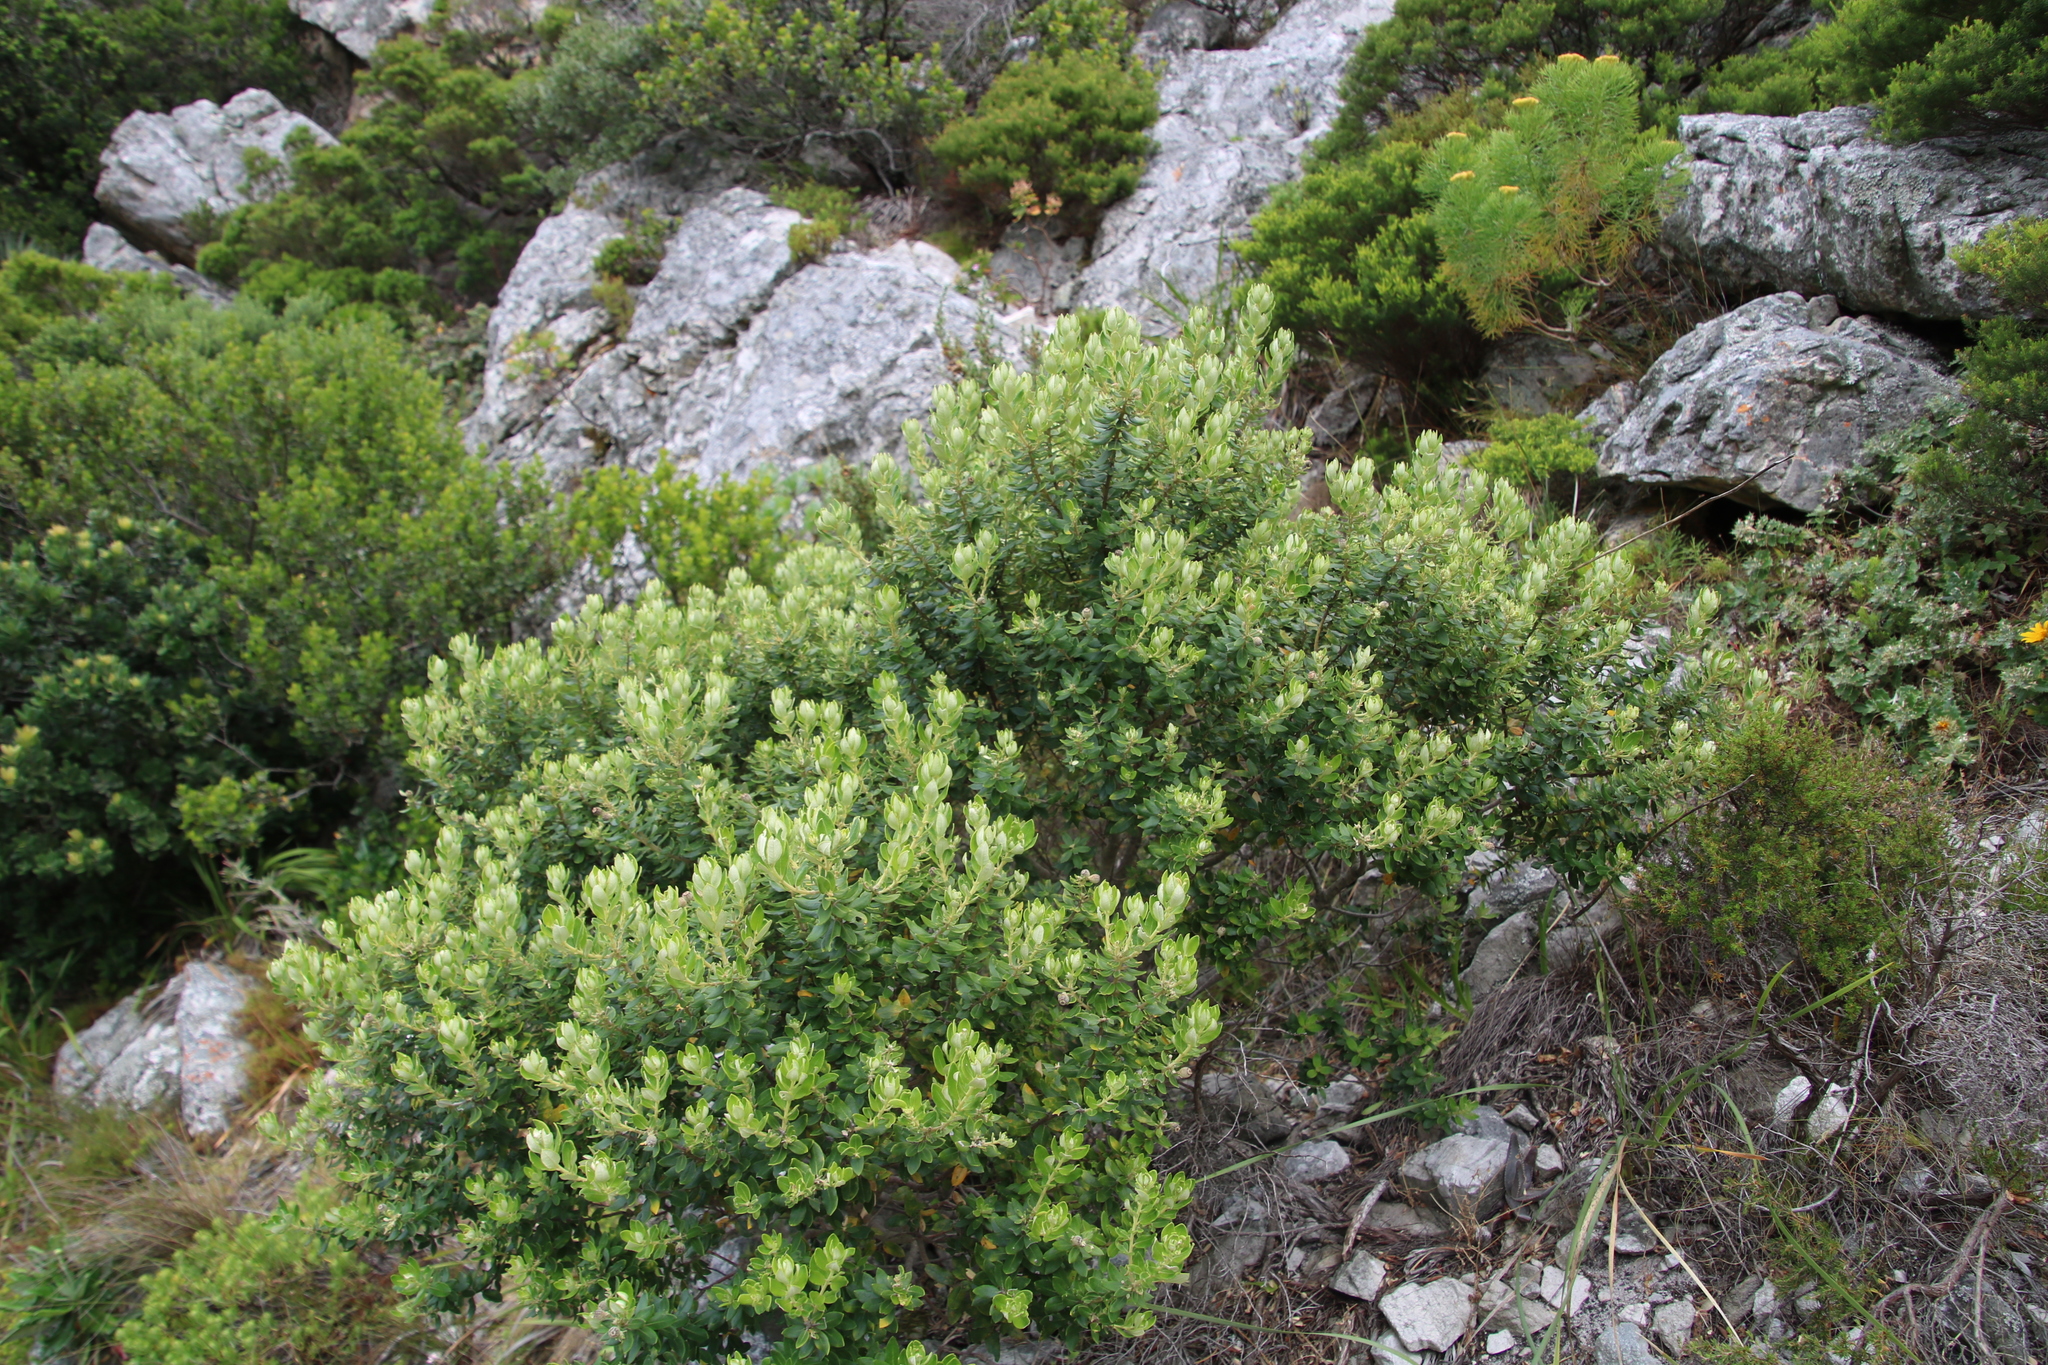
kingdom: Plantae
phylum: Tracheophyta
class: Magnoliopsida
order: Rosales
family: Rhamnaceae
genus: Phylica
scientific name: Phylica buxifolia
